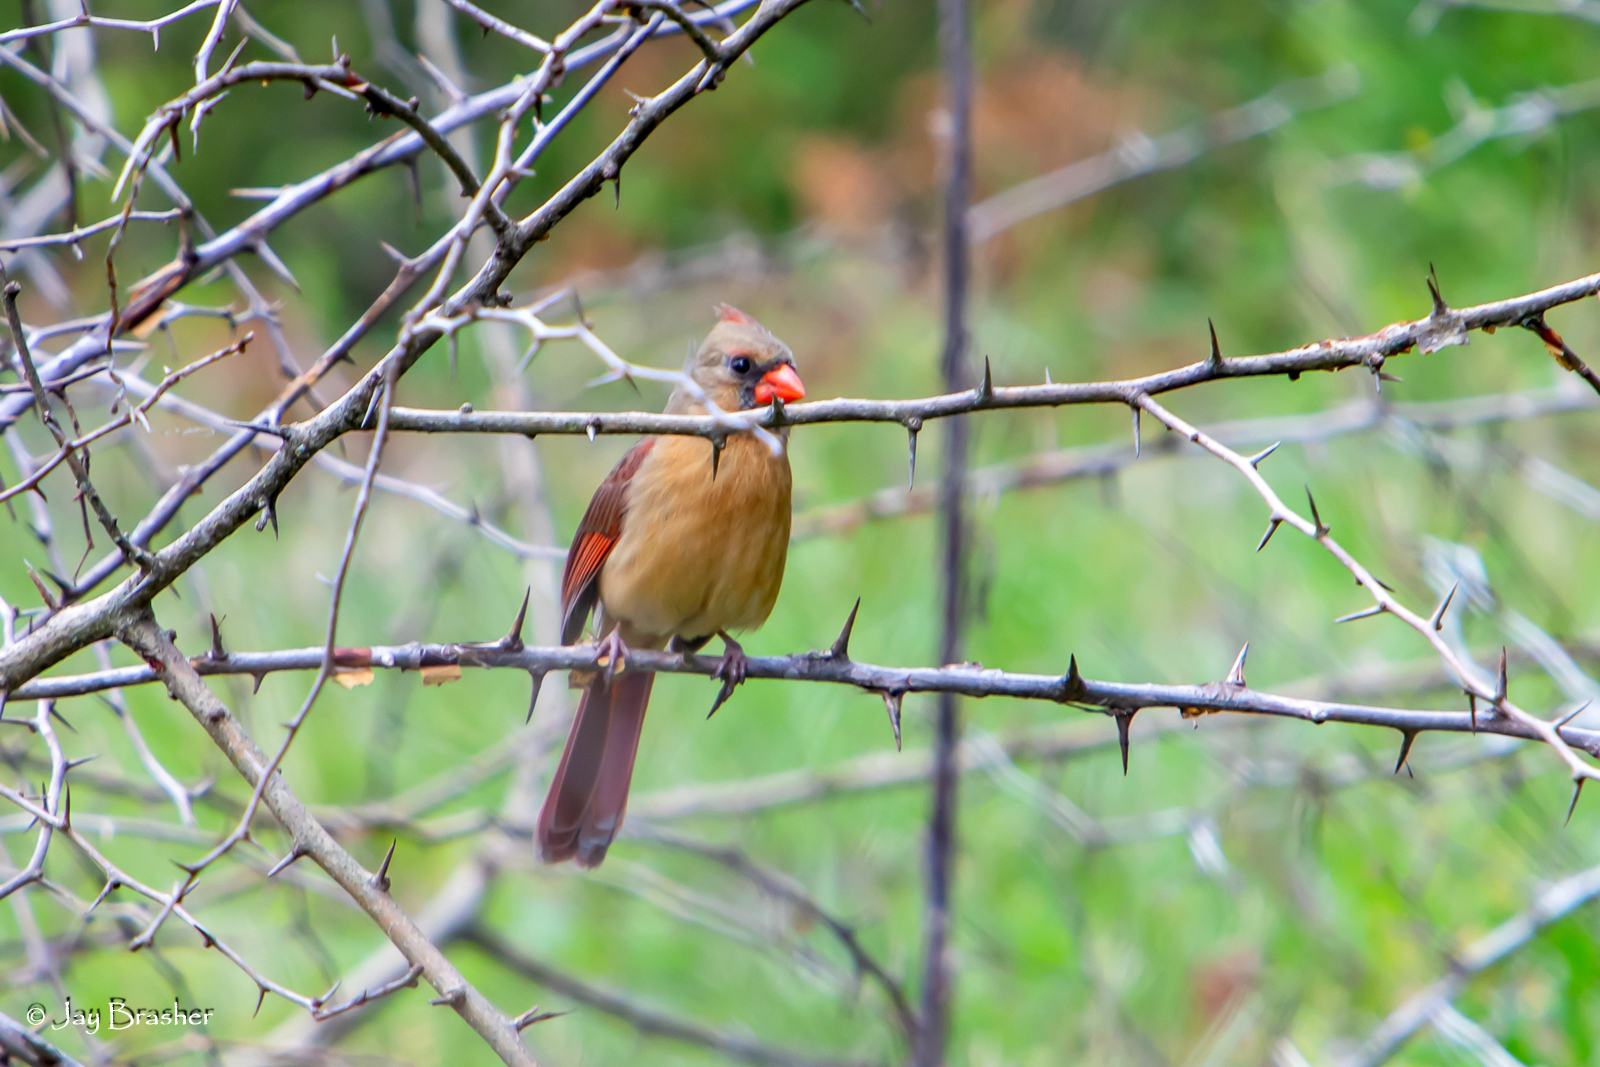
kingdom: Animalia
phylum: Chordata
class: Aves
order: Passeriformes
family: Cardinalidae
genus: Cardinalis
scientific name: Cardinalis cardinalis
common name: Northern cardinal
